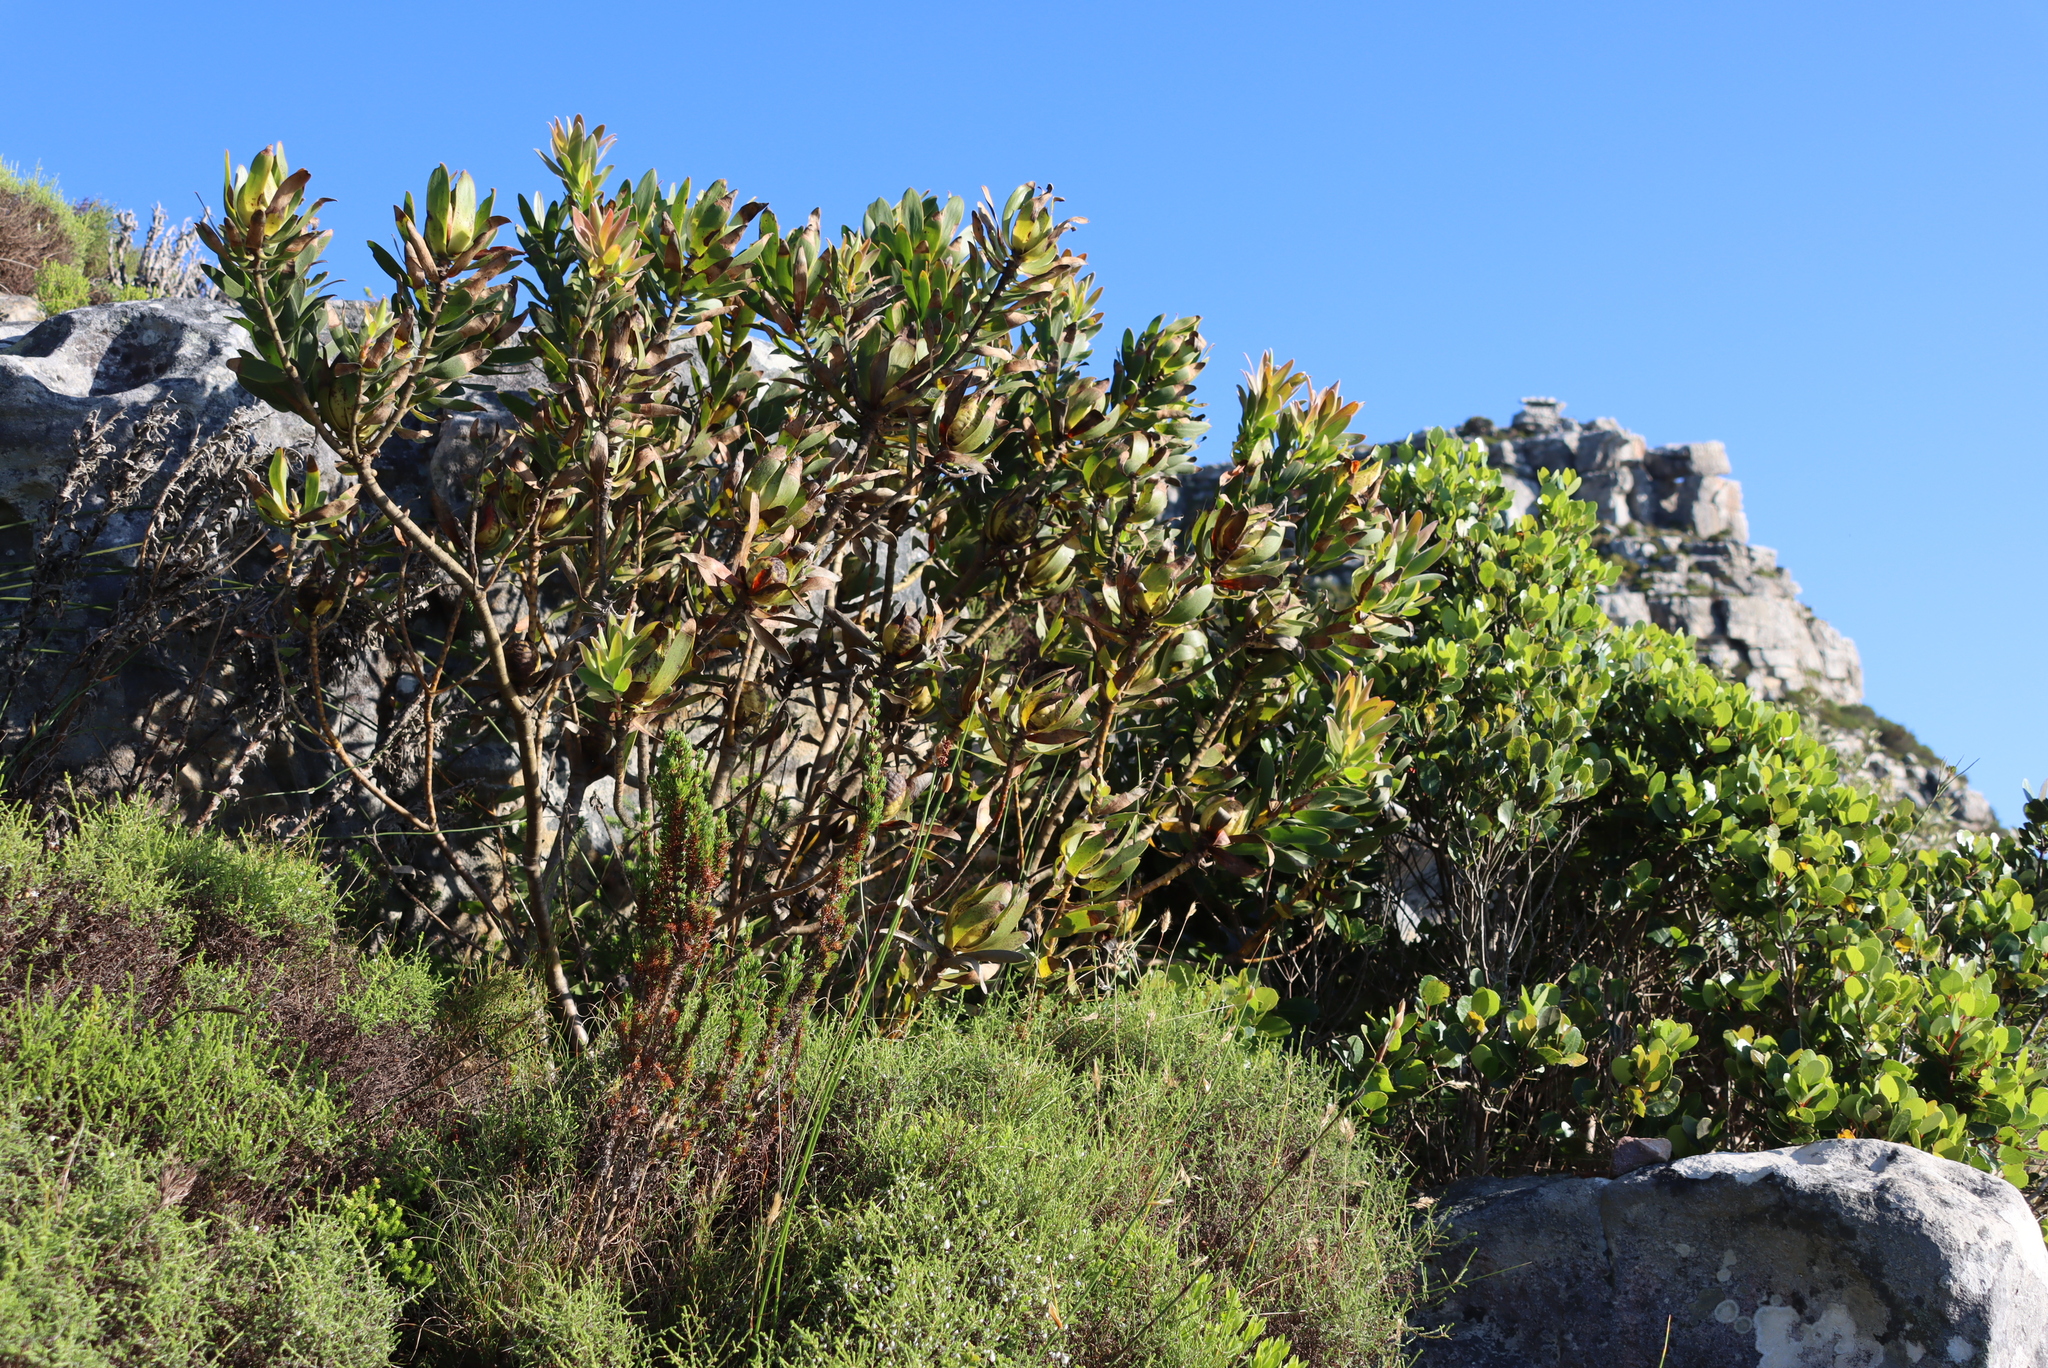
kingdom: Plantae
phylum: Tracheophyta
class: Magnoliopsida
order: Proteales
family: Proteaceae
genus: Leucadendron
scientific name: Leucadendron laureolum
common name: Golden sunshinebush
